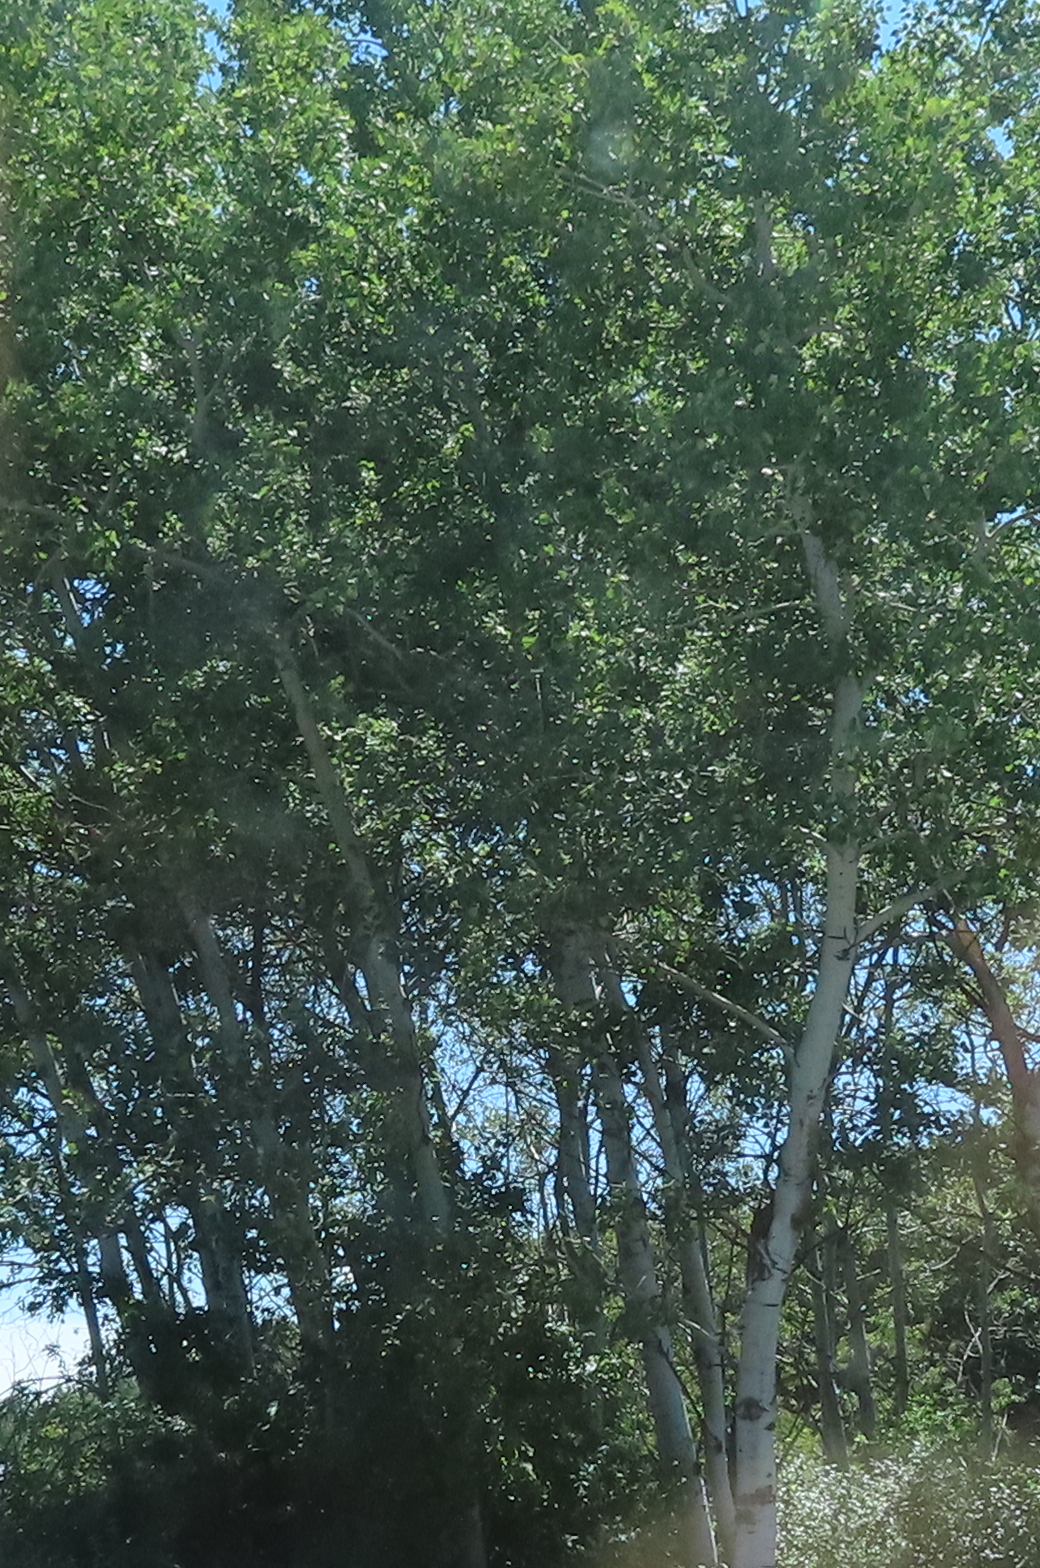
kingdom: Plantae
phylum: Tracheophyta
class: Magnoliopsida
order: Malpighiales
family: Salicaceae
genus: Populus
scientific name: Populus tremuloides
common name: Quaking aspen
